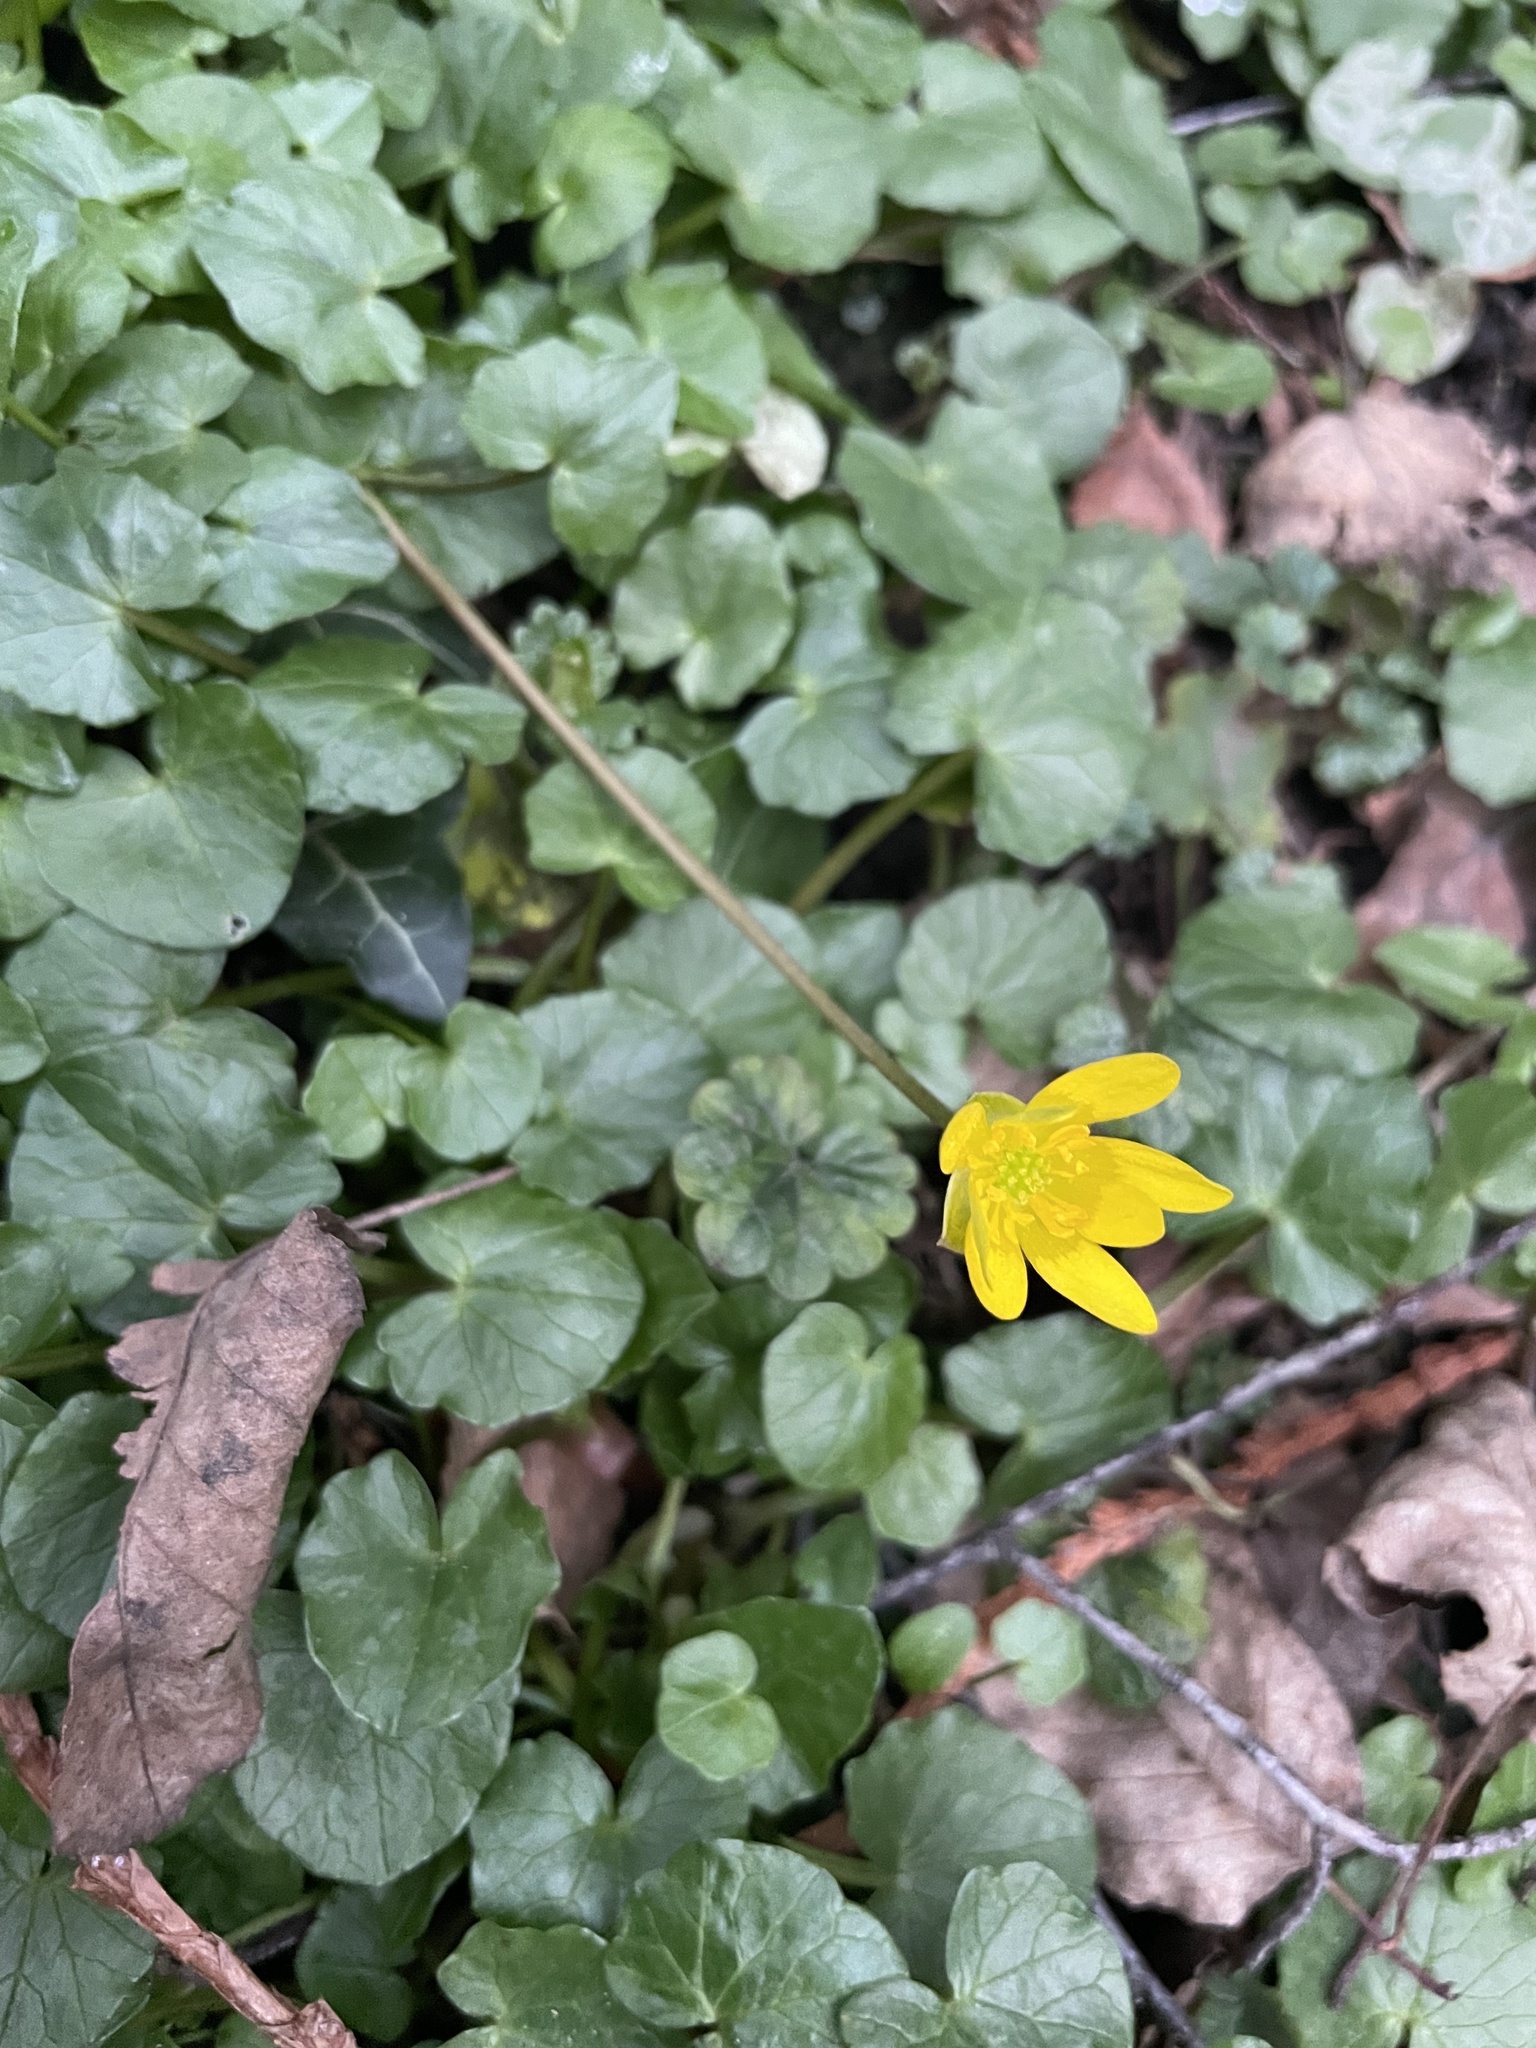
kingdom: Plantae
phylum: Tracheophyta
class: Magnoliopsida
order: Ranunculales
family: Ranunculaceae
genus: Ficaria
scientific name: Ficaria verna
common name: Lesser celandine
